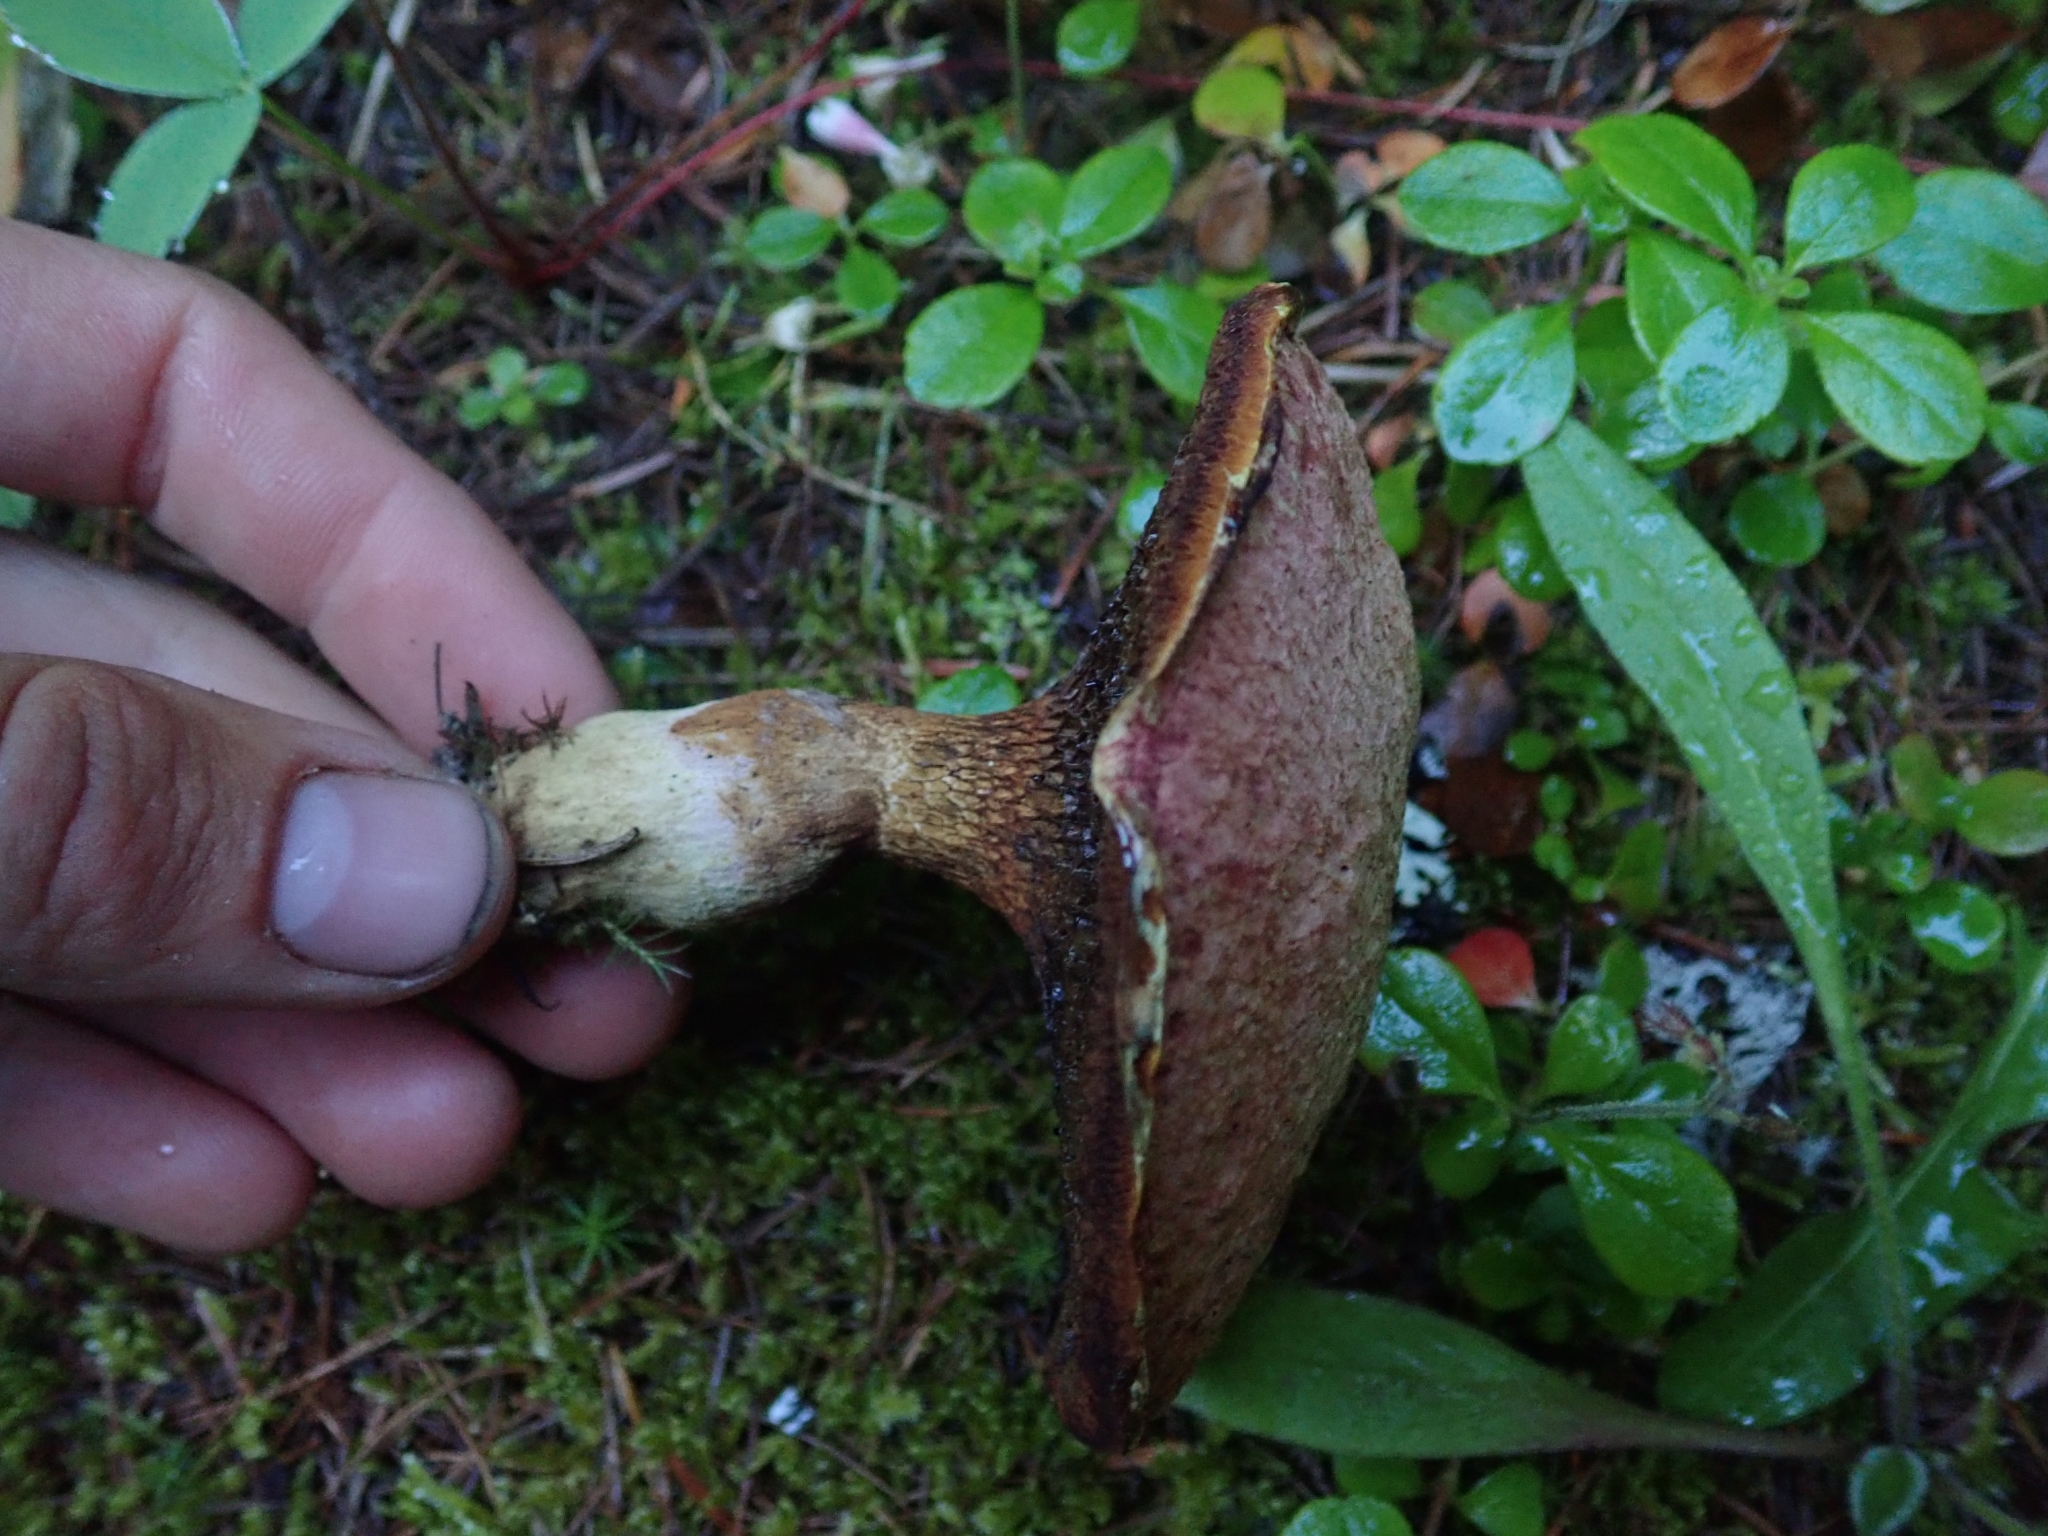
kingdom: Fungi
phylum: Basidiomycota
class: Agaricomycetes
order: Boletales
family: Suillaceae
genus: Suillus
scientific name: Suillus lakei
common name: Western painted suillus
